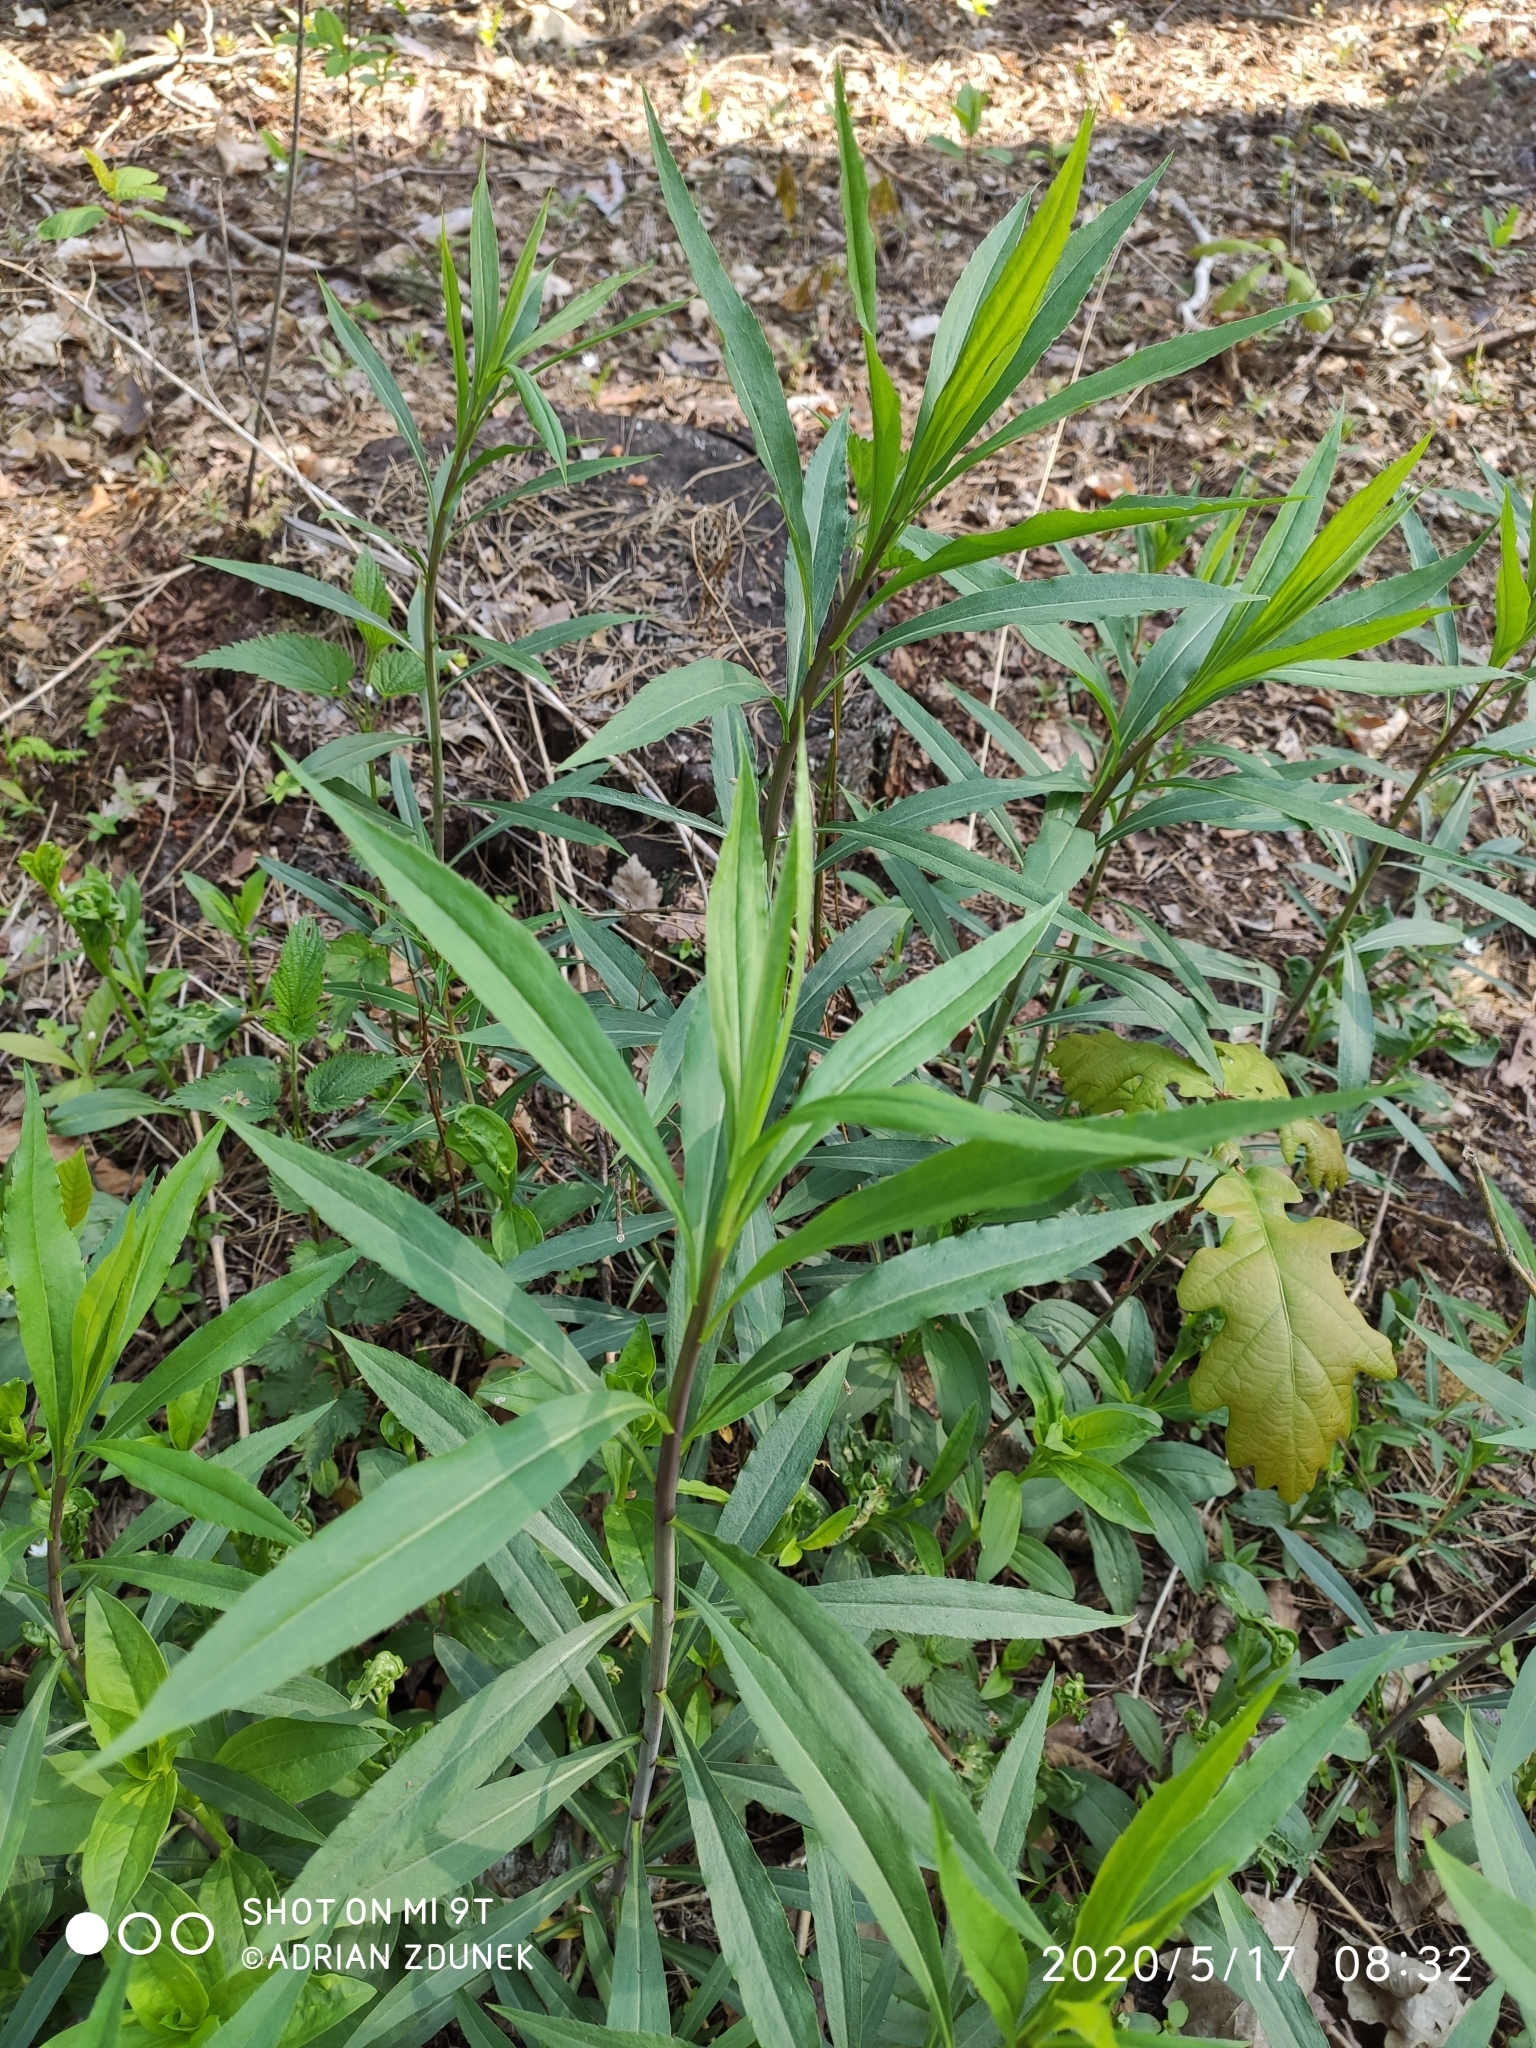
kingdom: Plantae
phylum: Tracheophyta
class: Magnoliopsida
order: Asterales
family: Asteraceae
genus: Solidago
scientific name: Solidago gigantea
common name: Giant goldenrod
